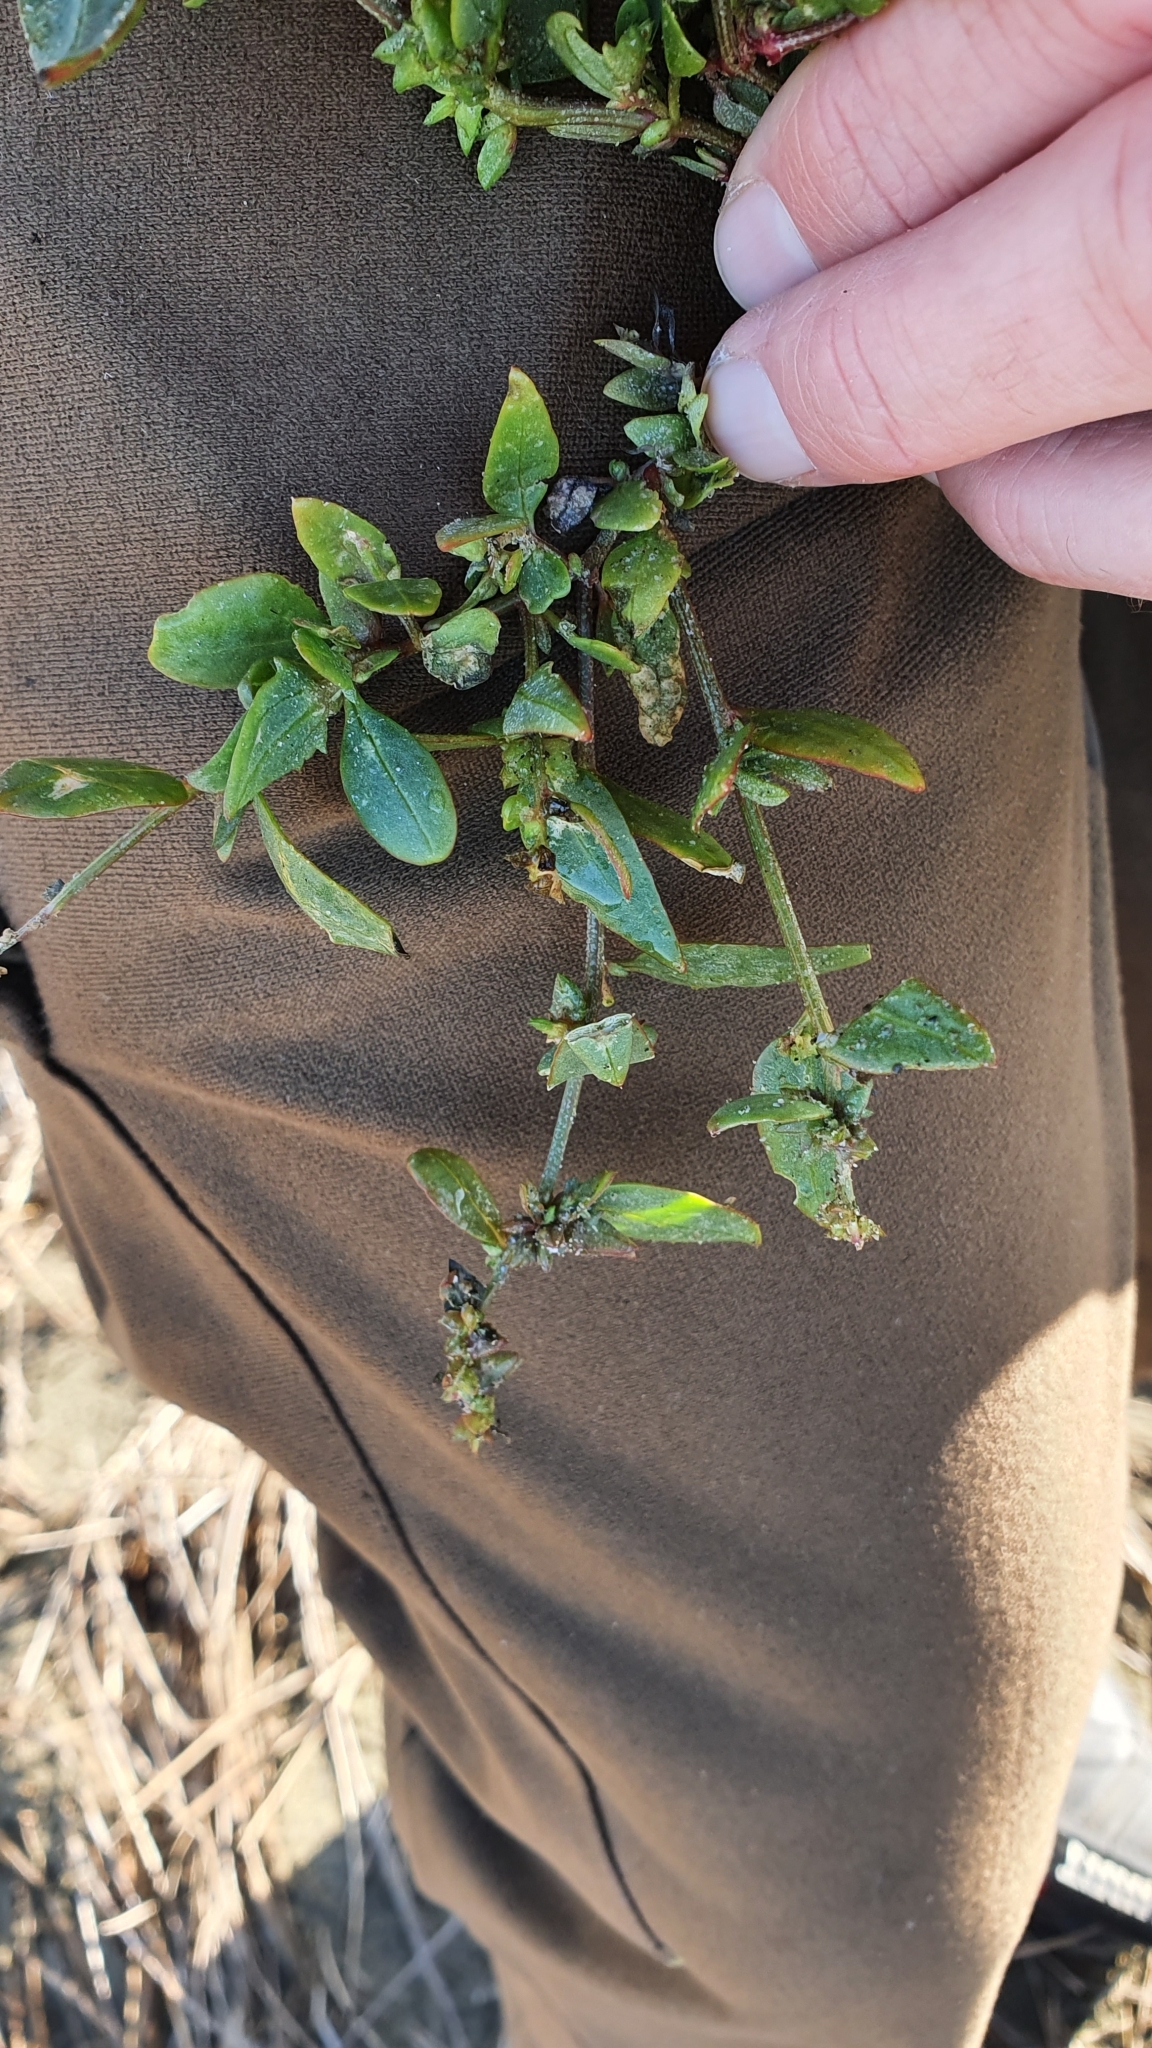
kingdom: Plantae
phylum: Tracheophyta
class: Magnoliopsida
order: Caryophyllales
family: Amaranthaceae
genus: Atriplex
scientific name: Atriplex prostrata
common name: Spear-leaved orache
